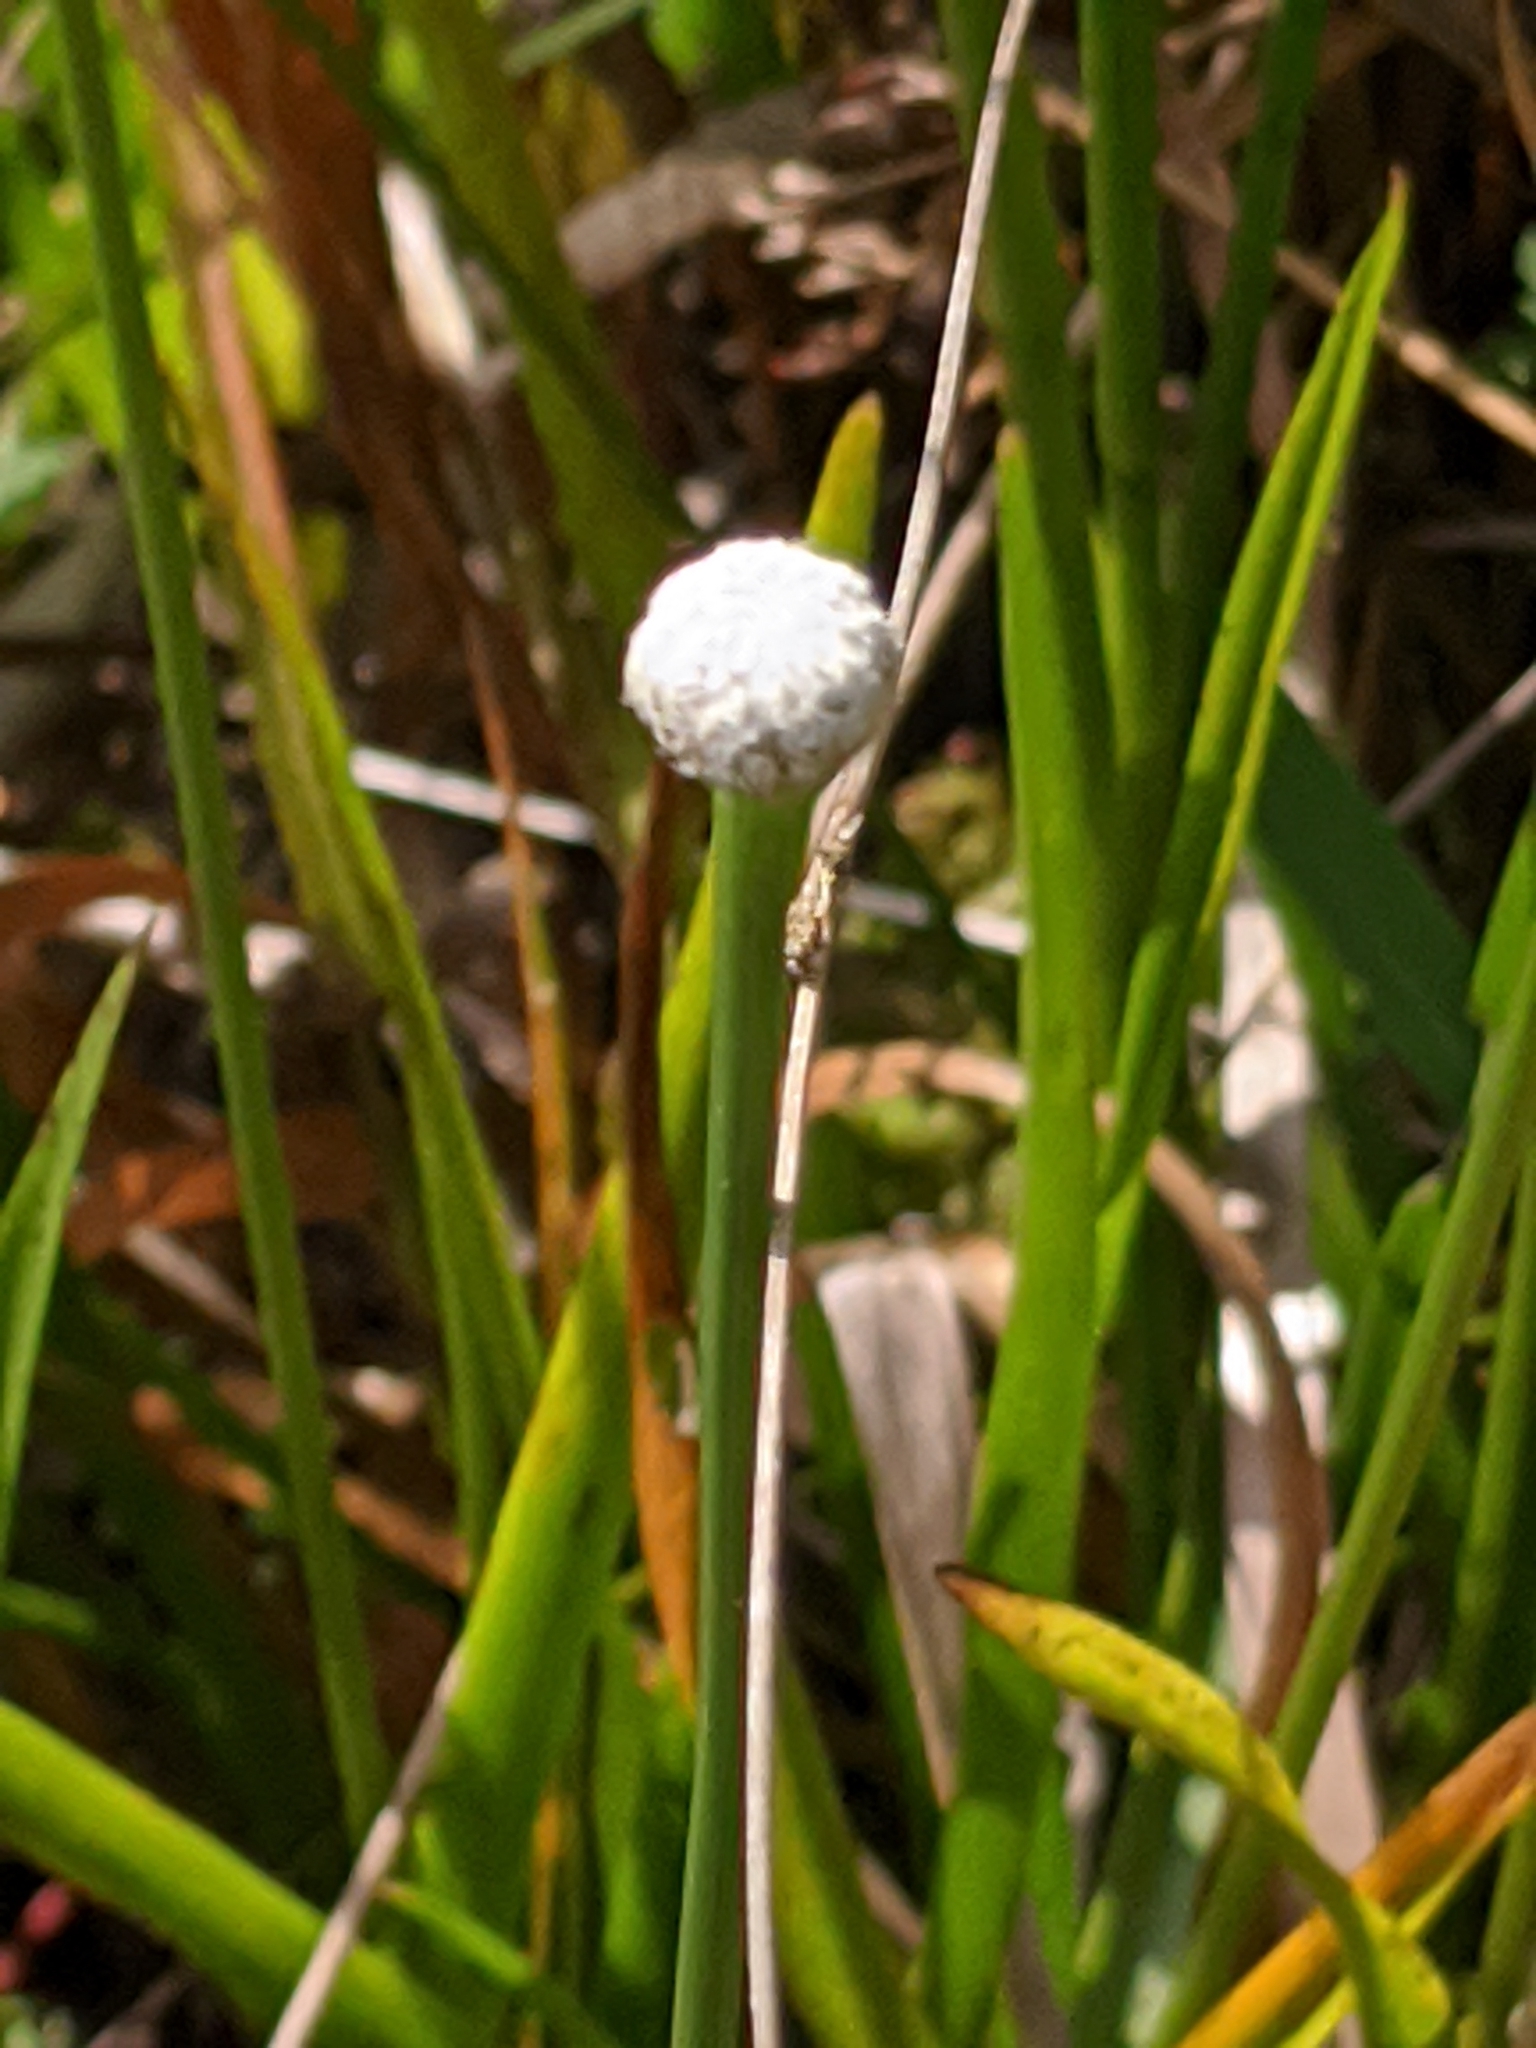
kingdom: Plantae
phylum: Tracheophyta
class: Liliopsida
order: Poales
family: Eriocaulaceae
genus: Eriocaulon
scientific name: Eriocaulon decangulare
